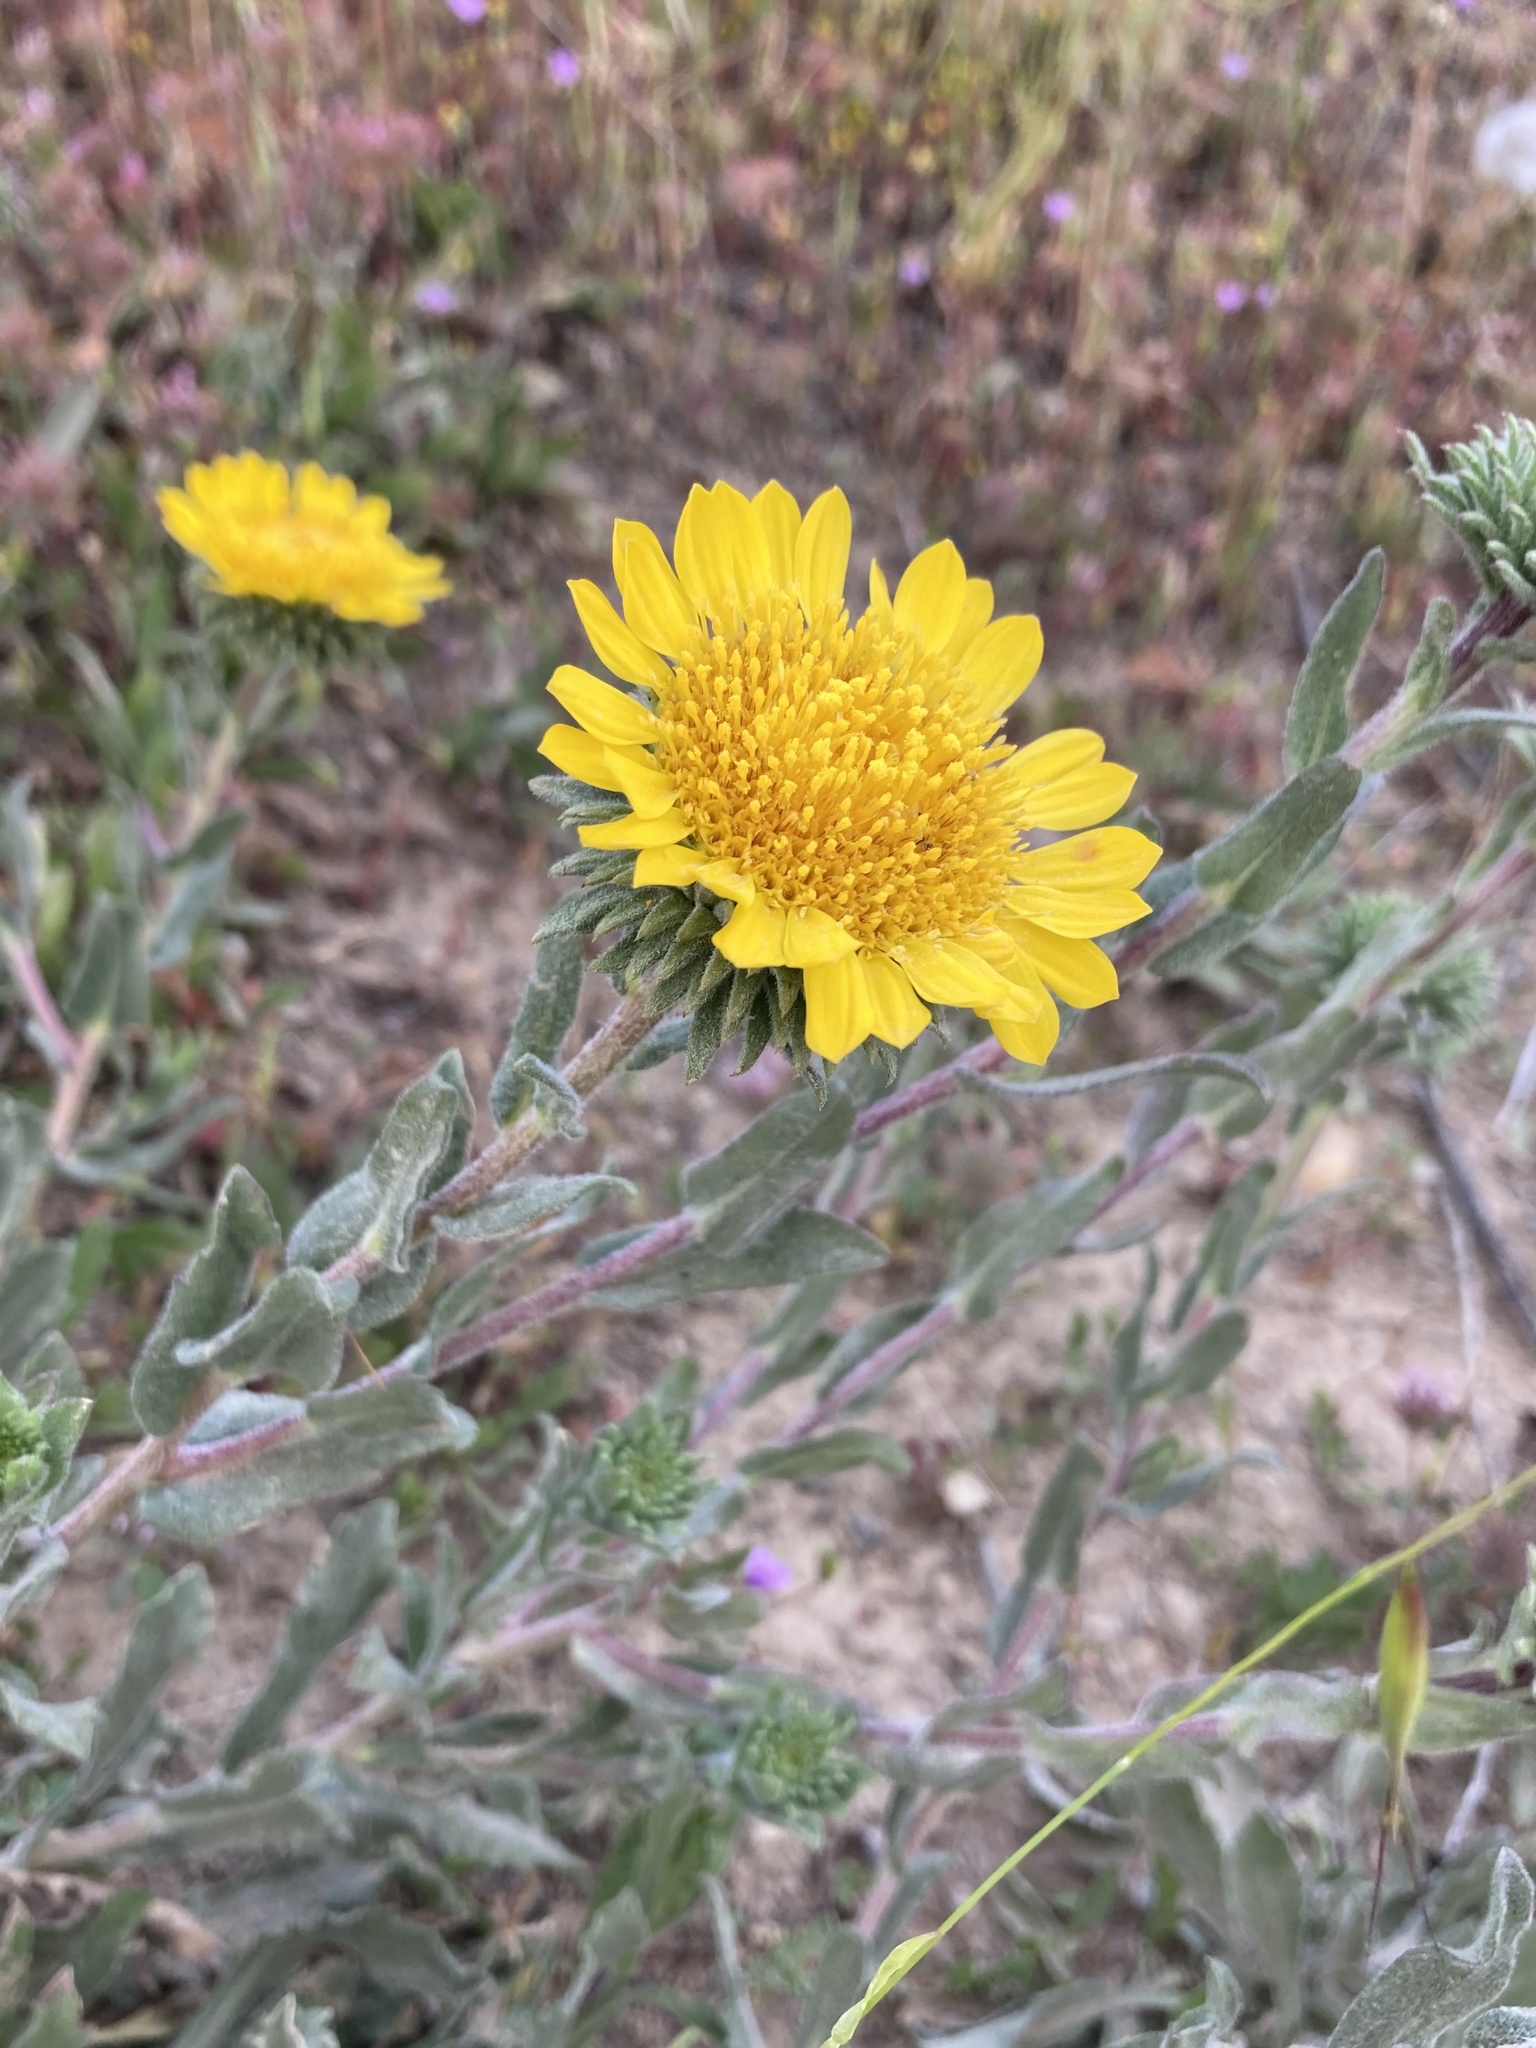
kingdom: Plantae
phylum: Tracheophyta
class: Magnoliopsida
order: Asterales
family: Asteraceae
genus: Grindelia
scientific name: Grindelia hirsutula
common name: Hairy gumweed
